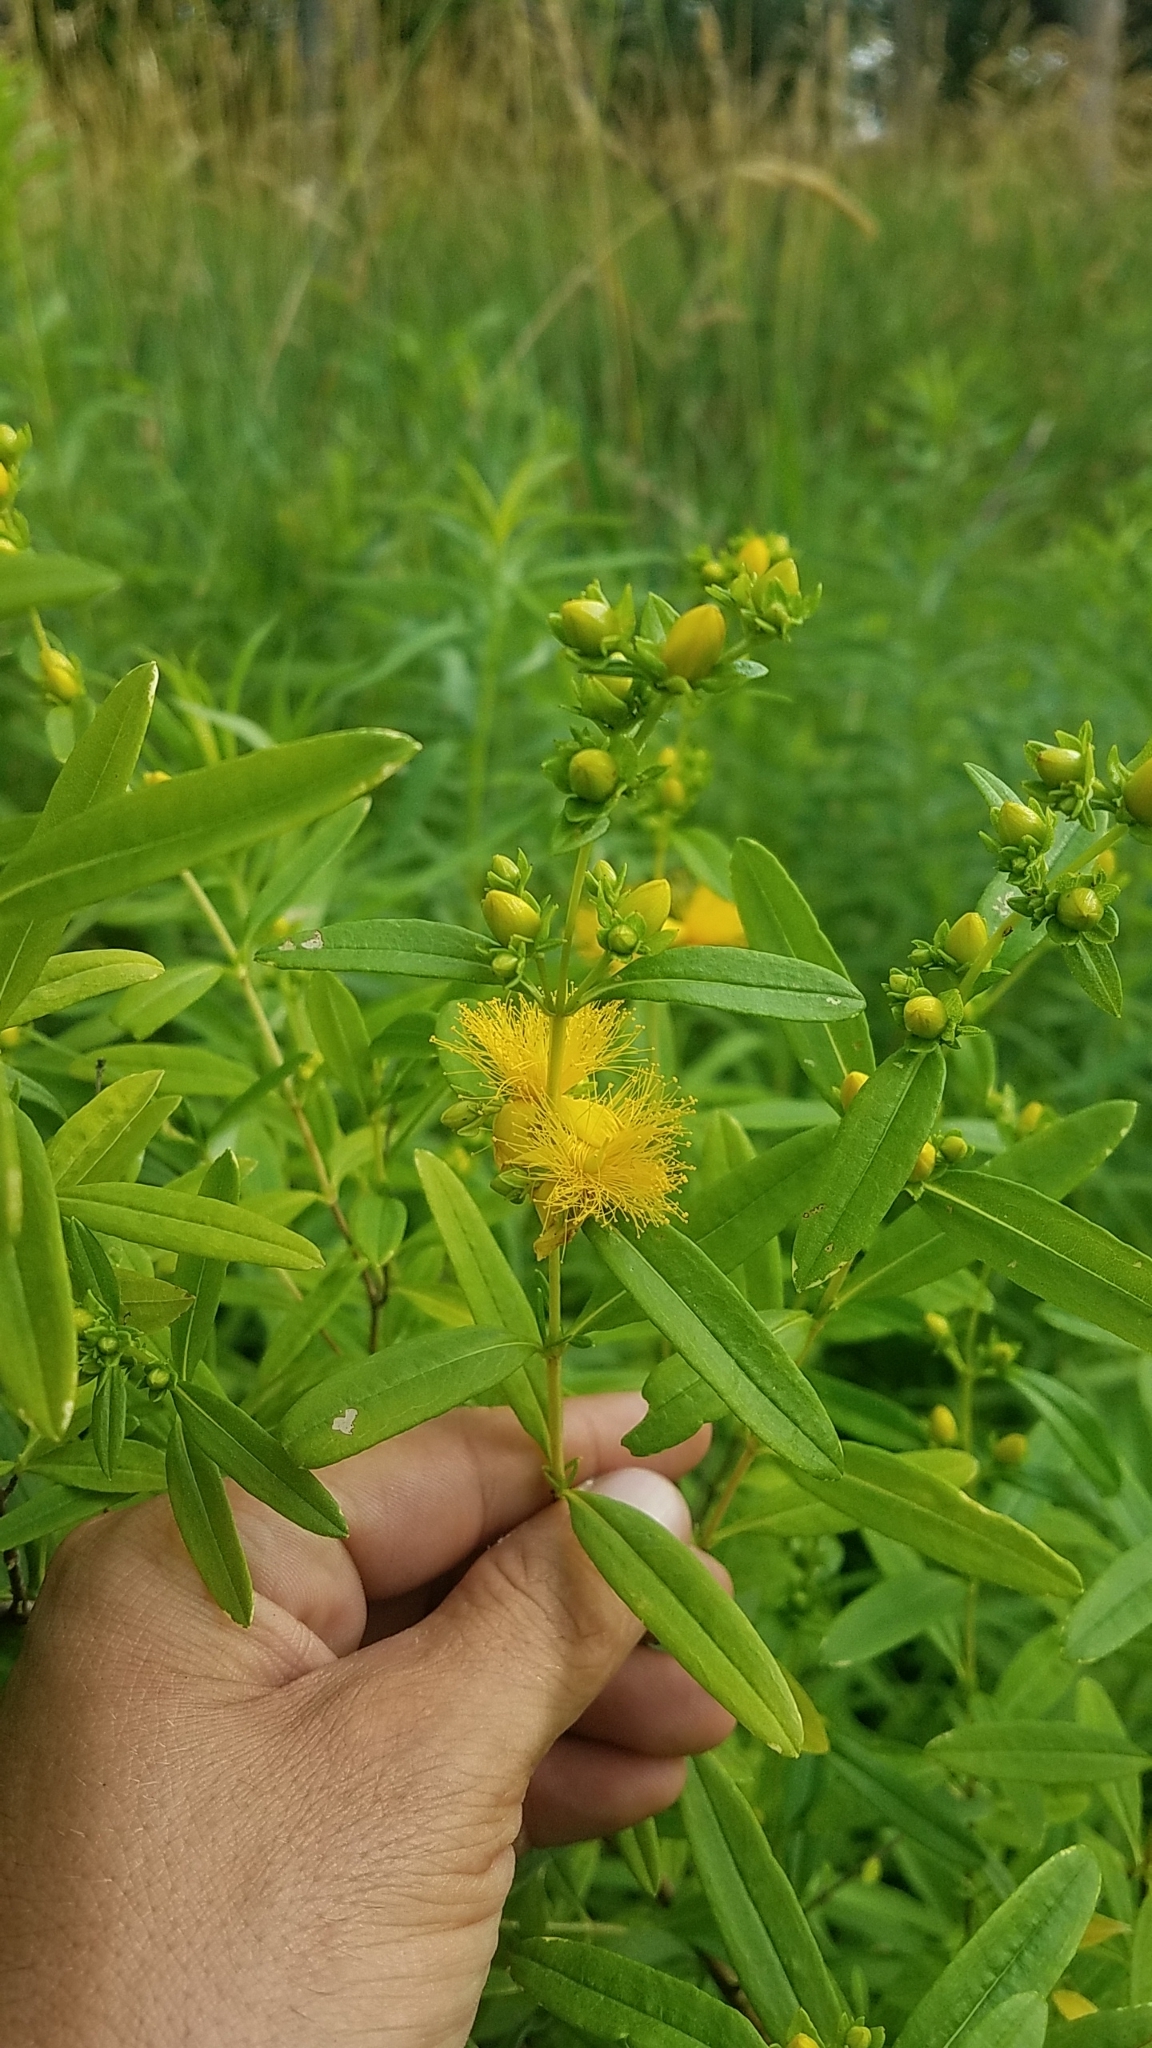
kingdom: Plantae
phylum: Tracheophyta
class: Magnoliopsida
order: Malpighiales
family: Hypericaceae
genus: Hypericum
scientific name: Hypericum prolificum
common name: Shrubby st. john's-wort
